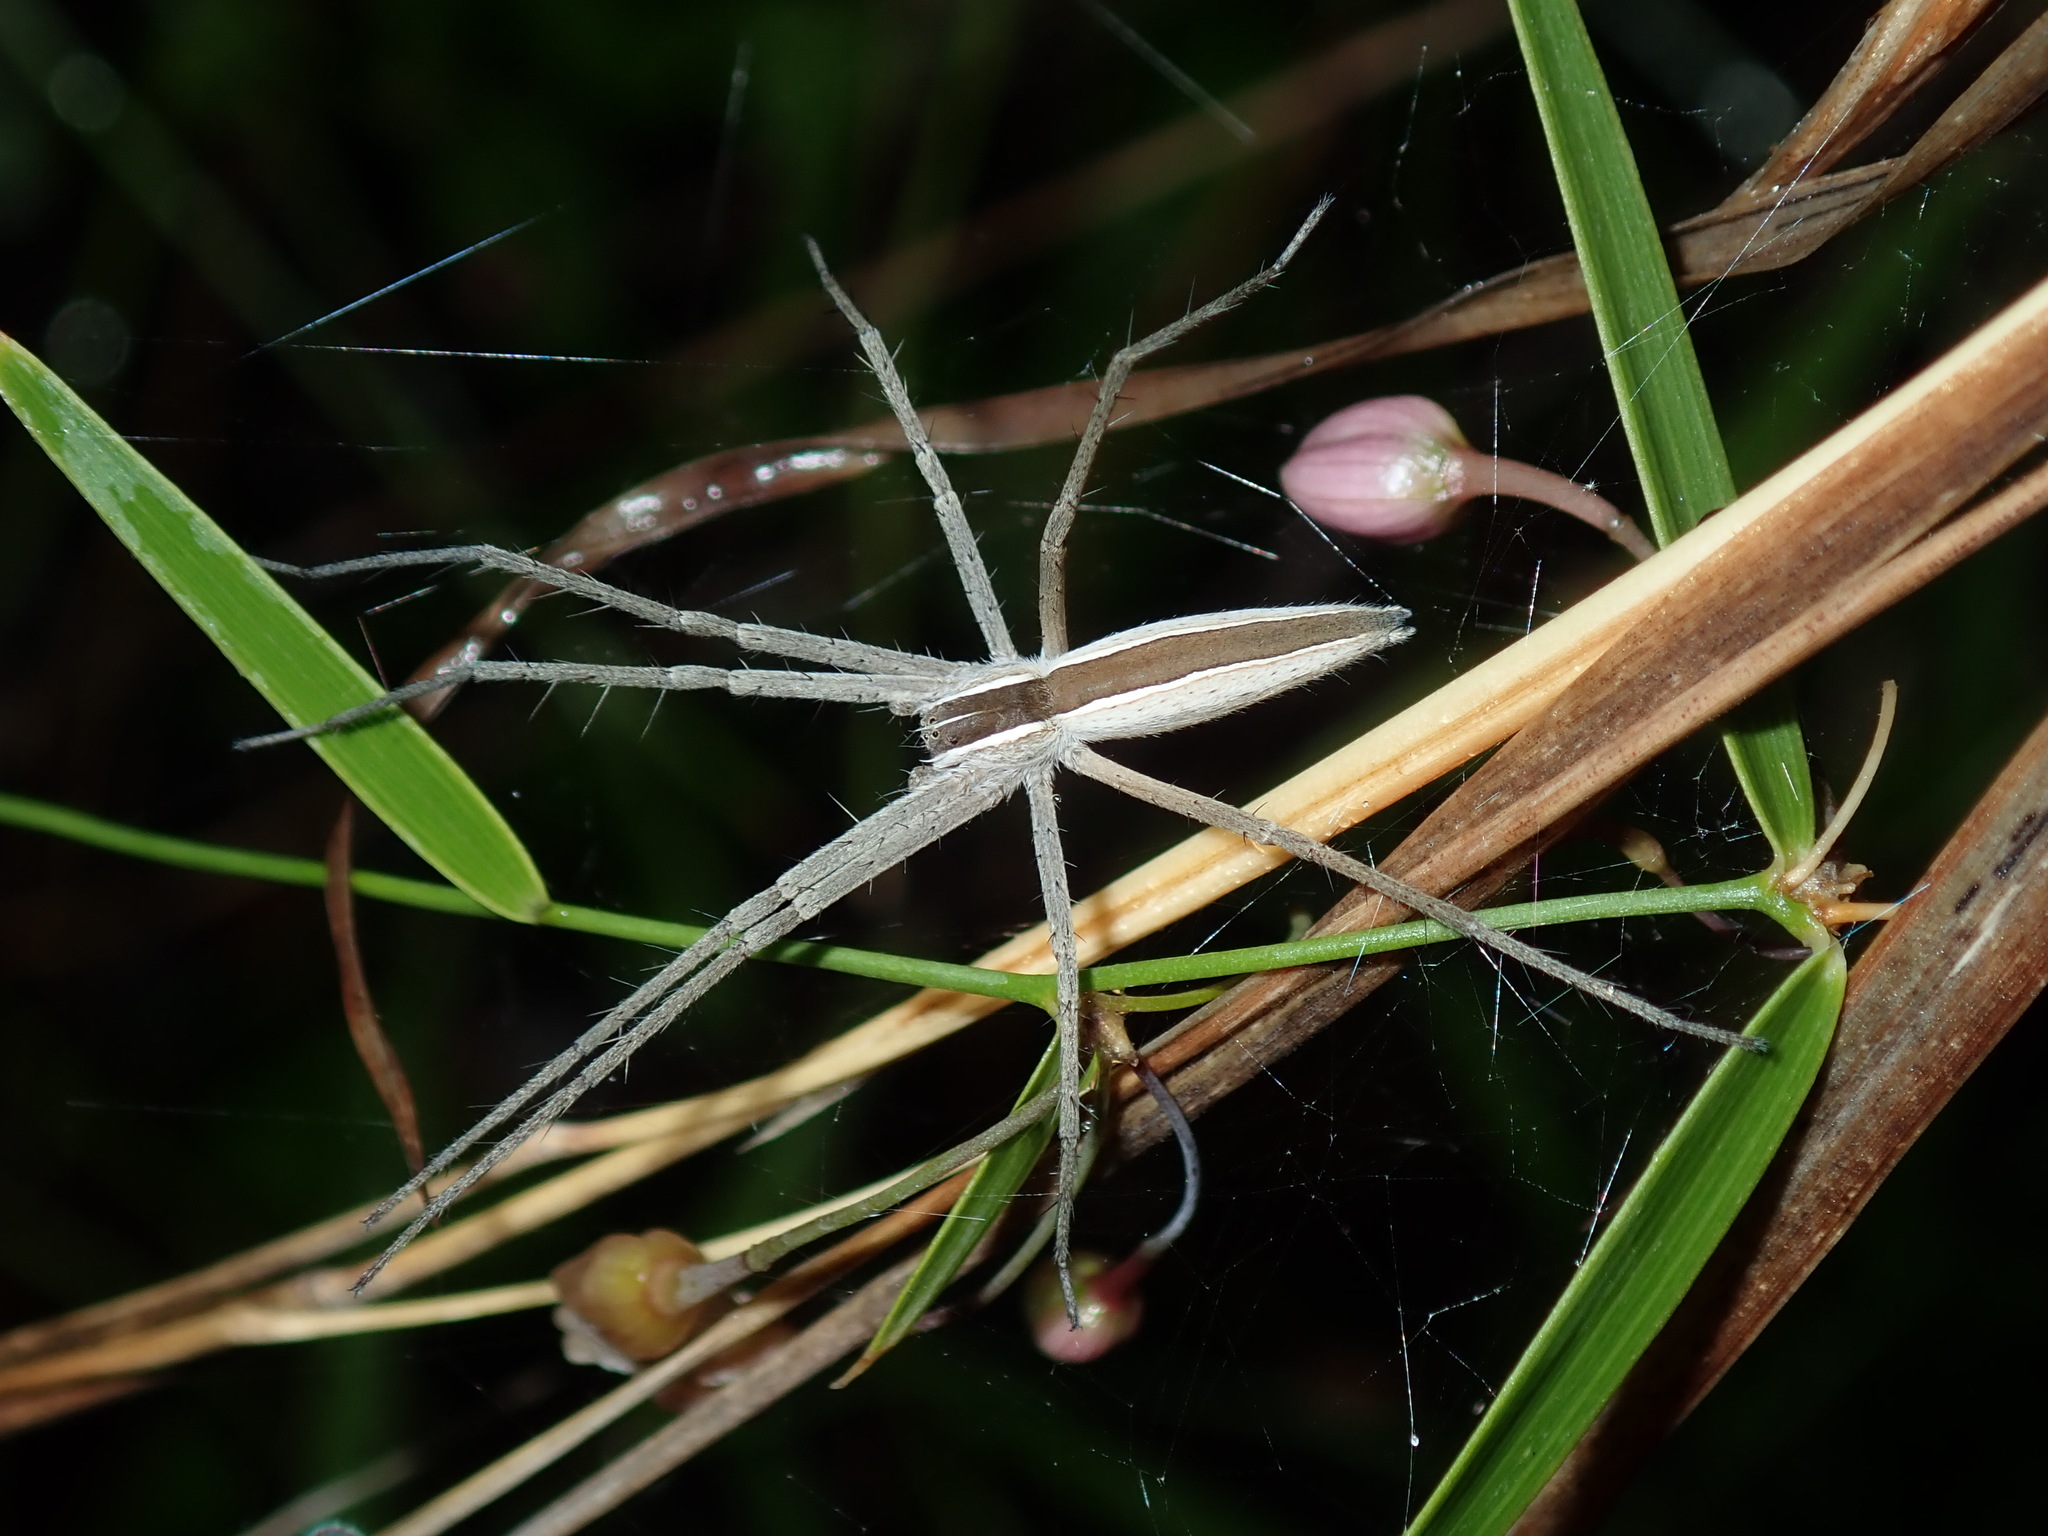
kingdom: Animalia
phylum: Arthropoda
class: Arachnida
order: Araneae
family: Pisauridae
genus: Perenethis
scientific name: Perenethis venusta
